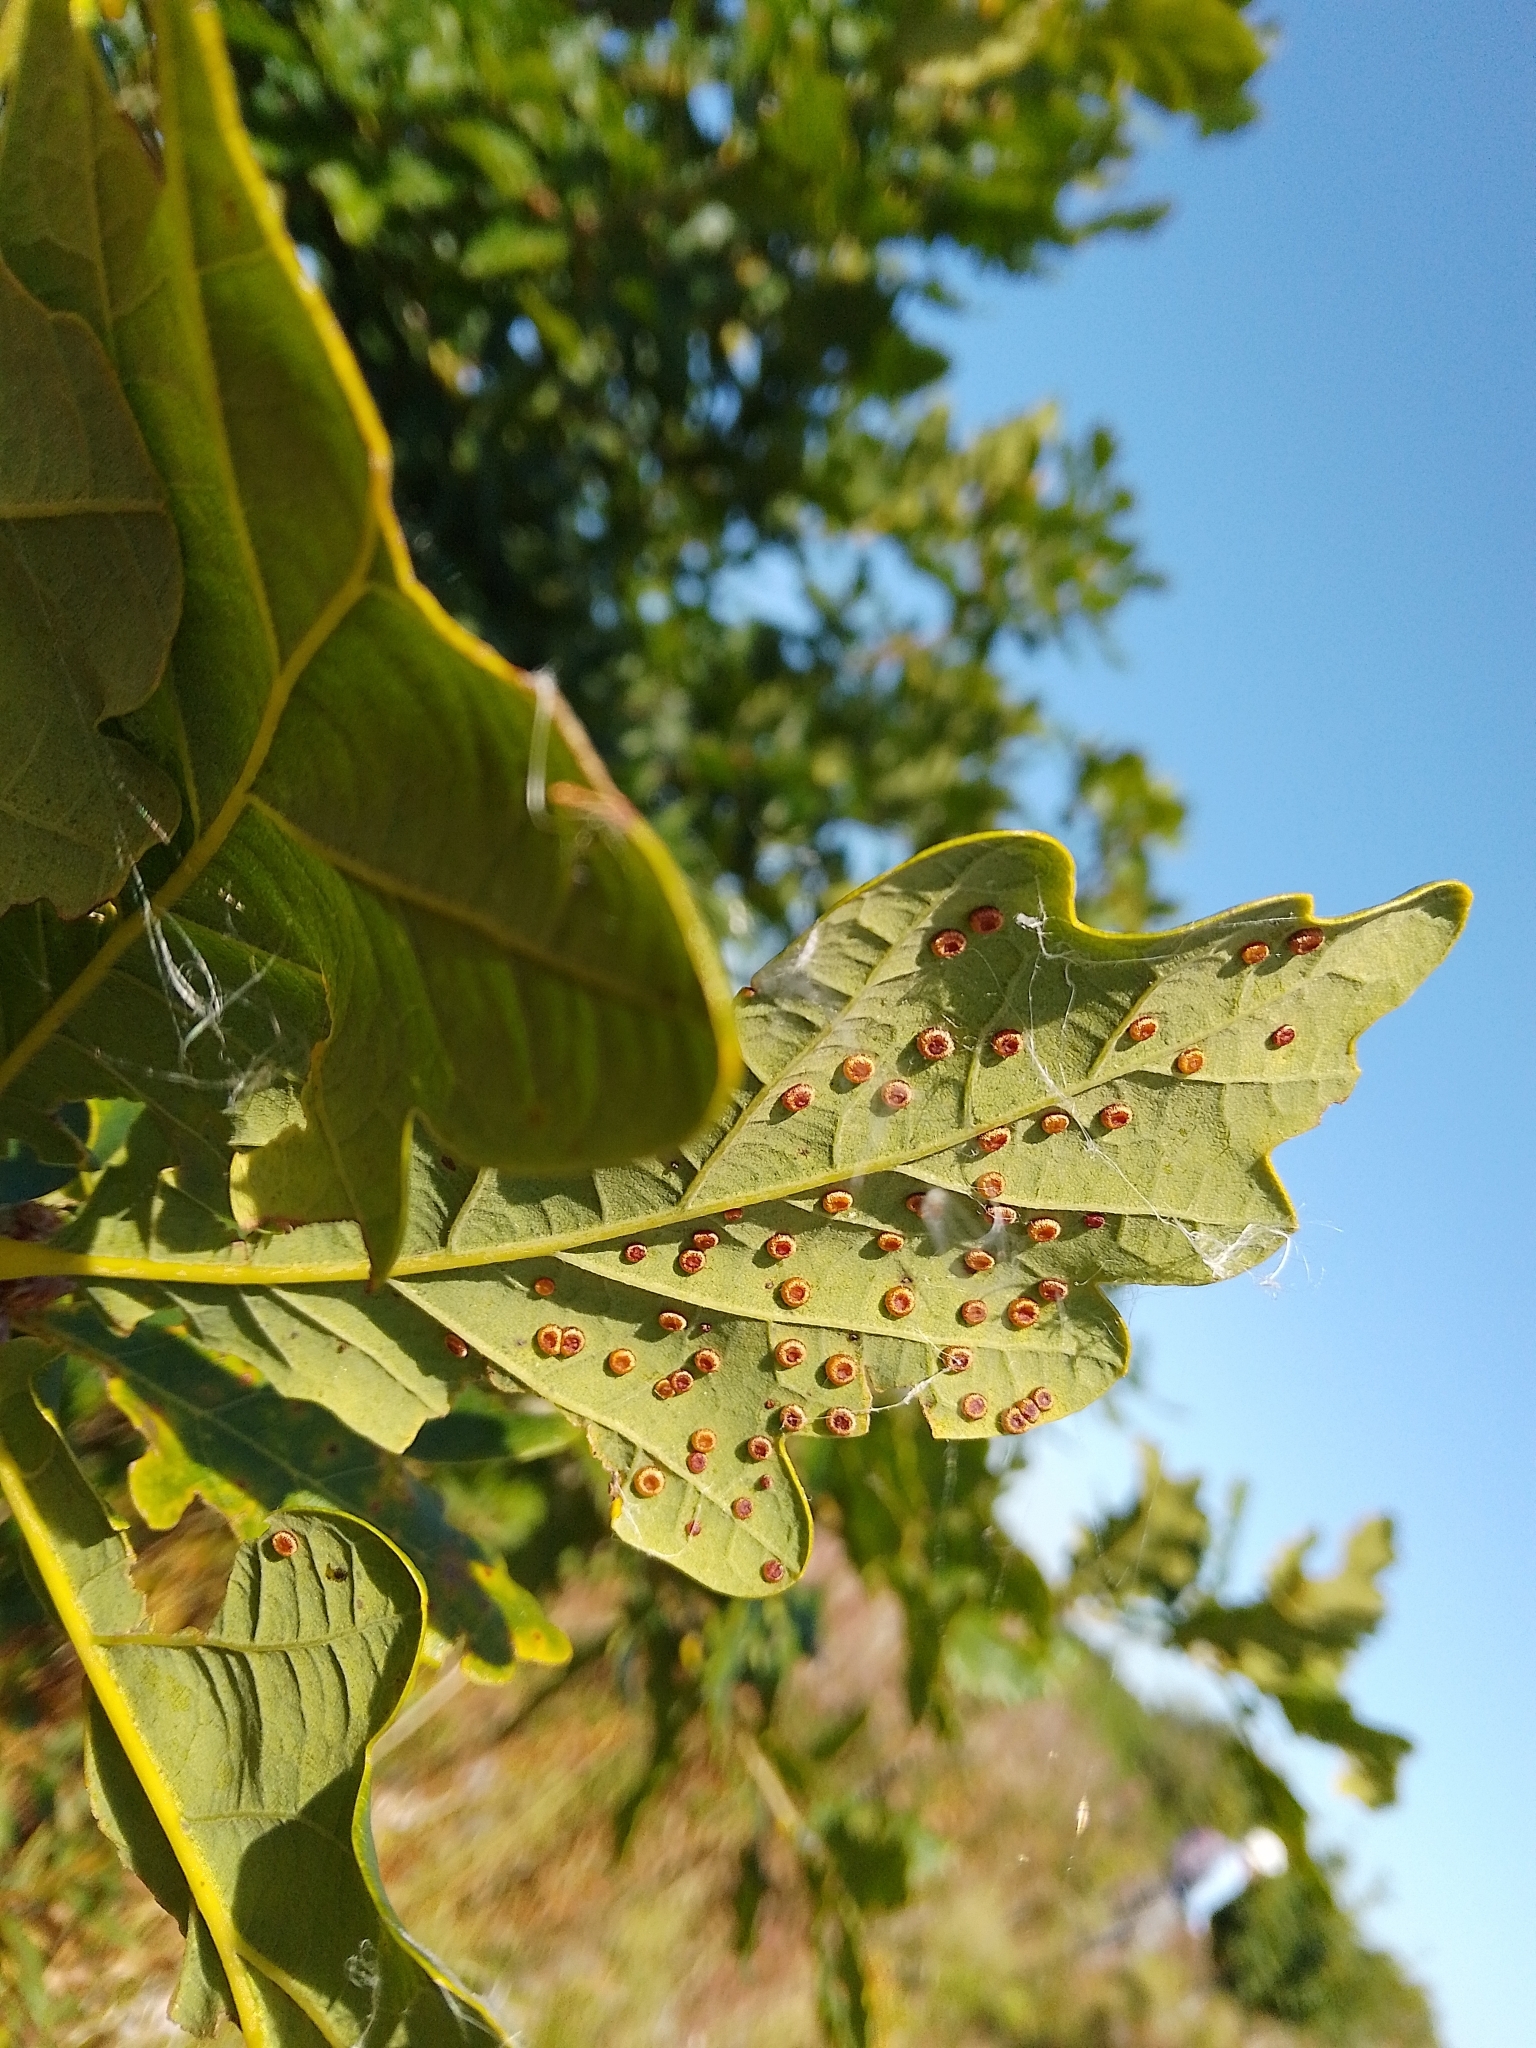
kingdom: Animalia
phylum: Arthropoda
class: Insecta
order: Hymenoptera
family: Cynipidae
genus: Neuroterus
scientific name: Neuroterus numismalis
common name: Silk-button spangle gall
